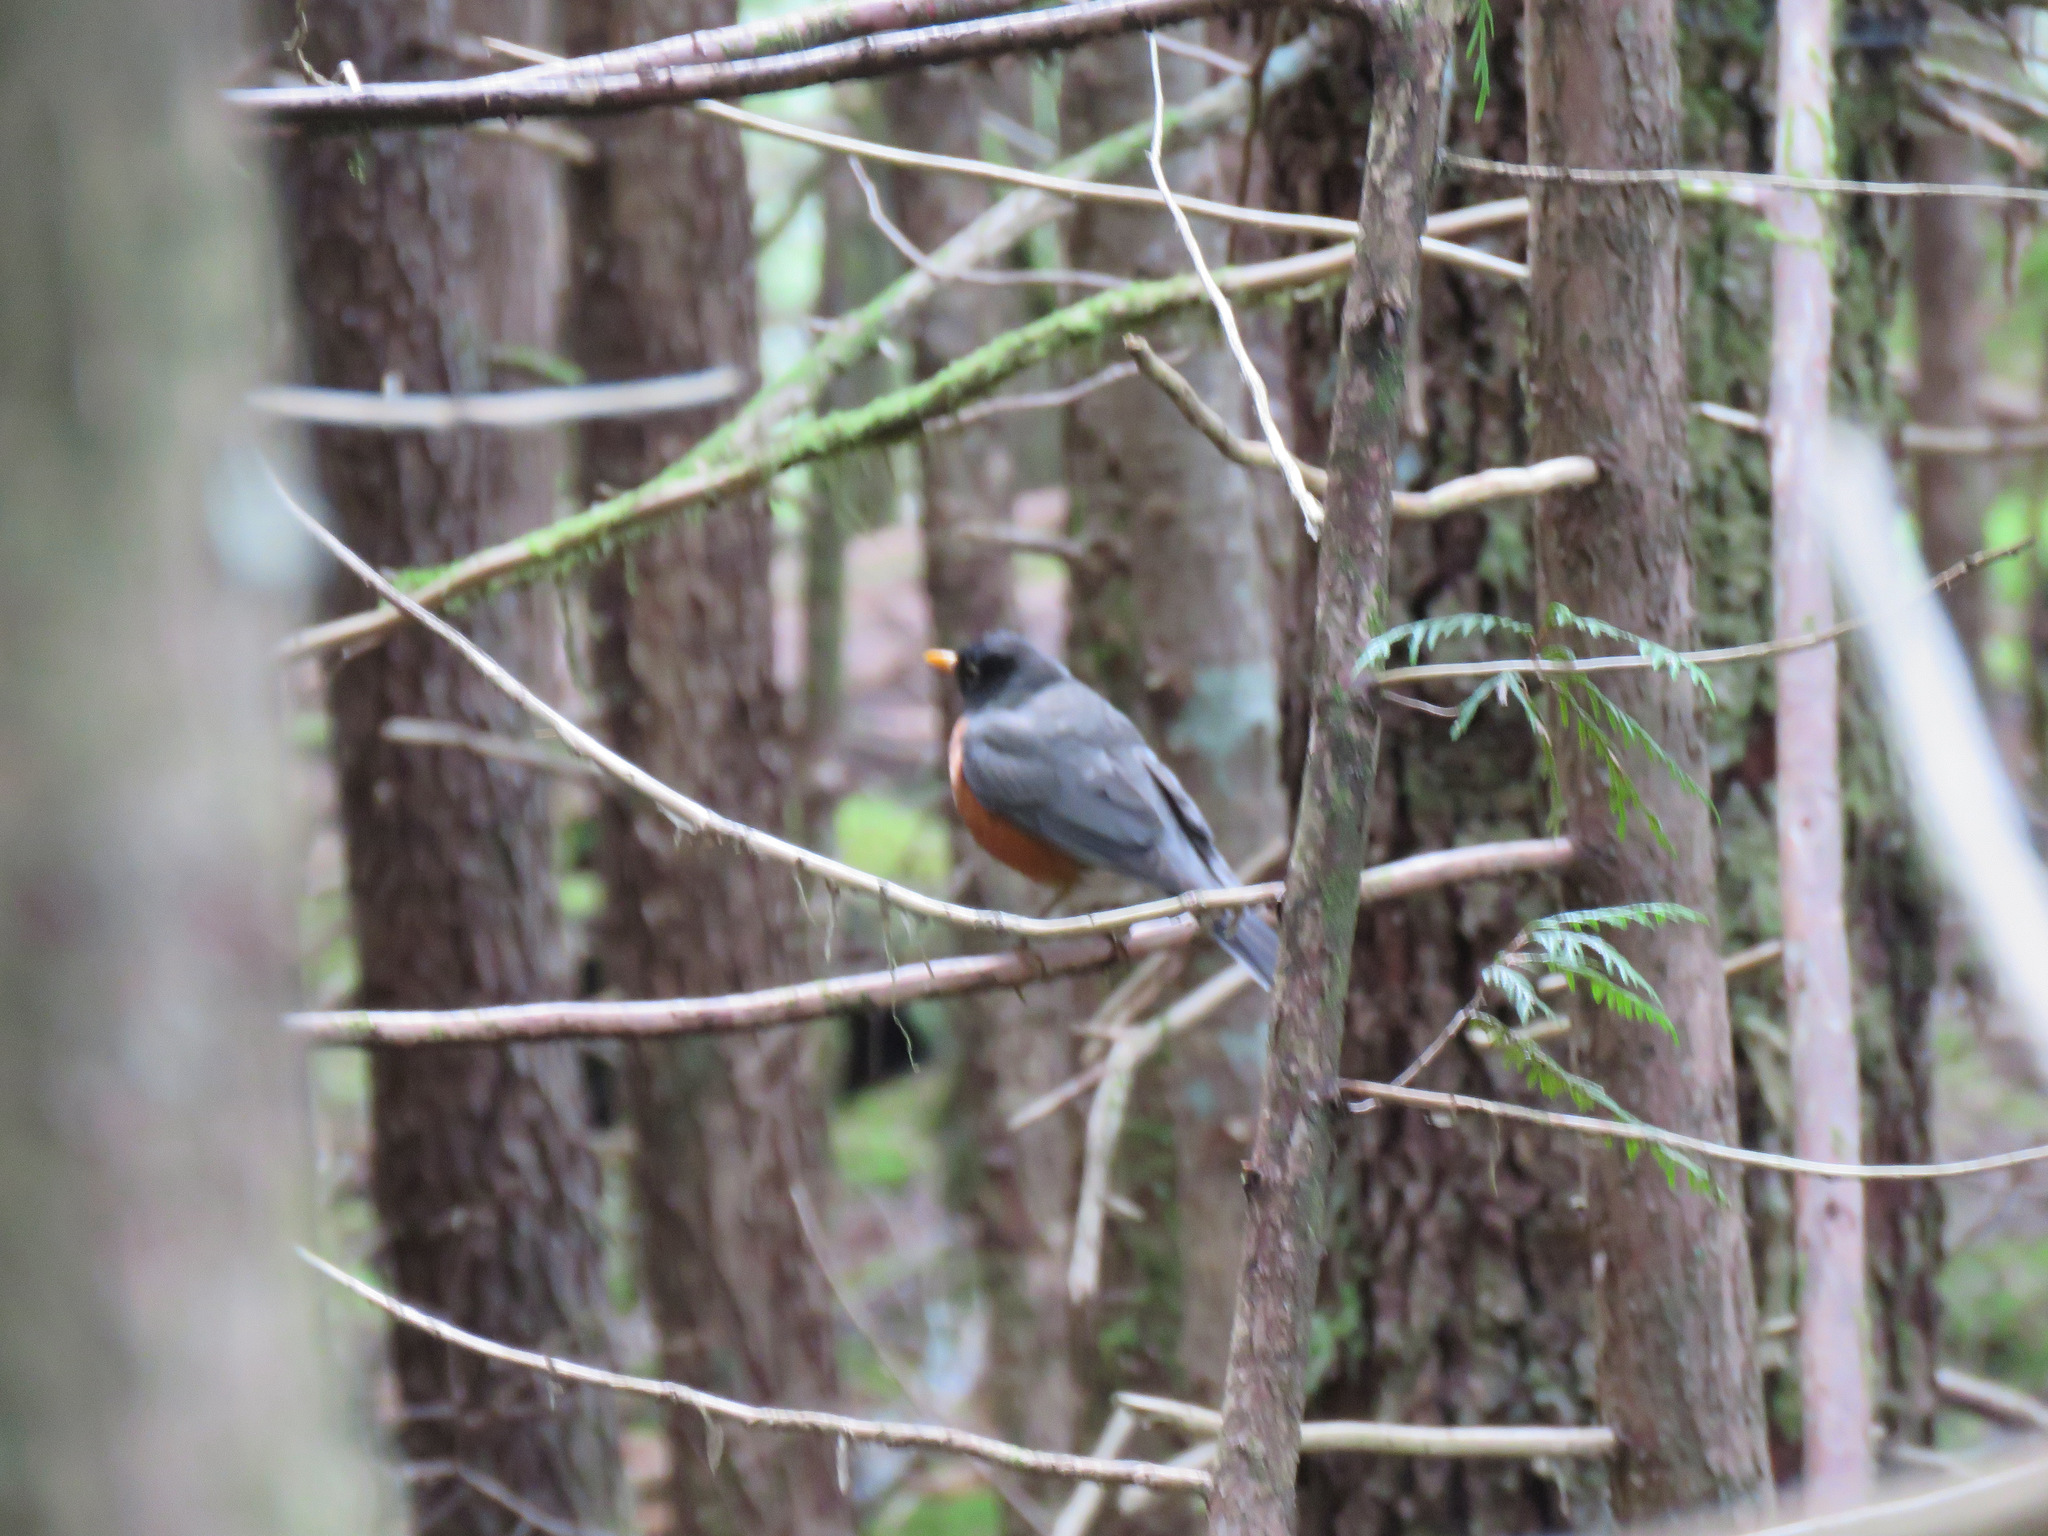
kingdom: Animalia
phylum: Chordata
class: Aves
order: Passeriformes
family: Turdidae
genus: Turdus
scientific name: Turdus migratorius
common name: American robin
